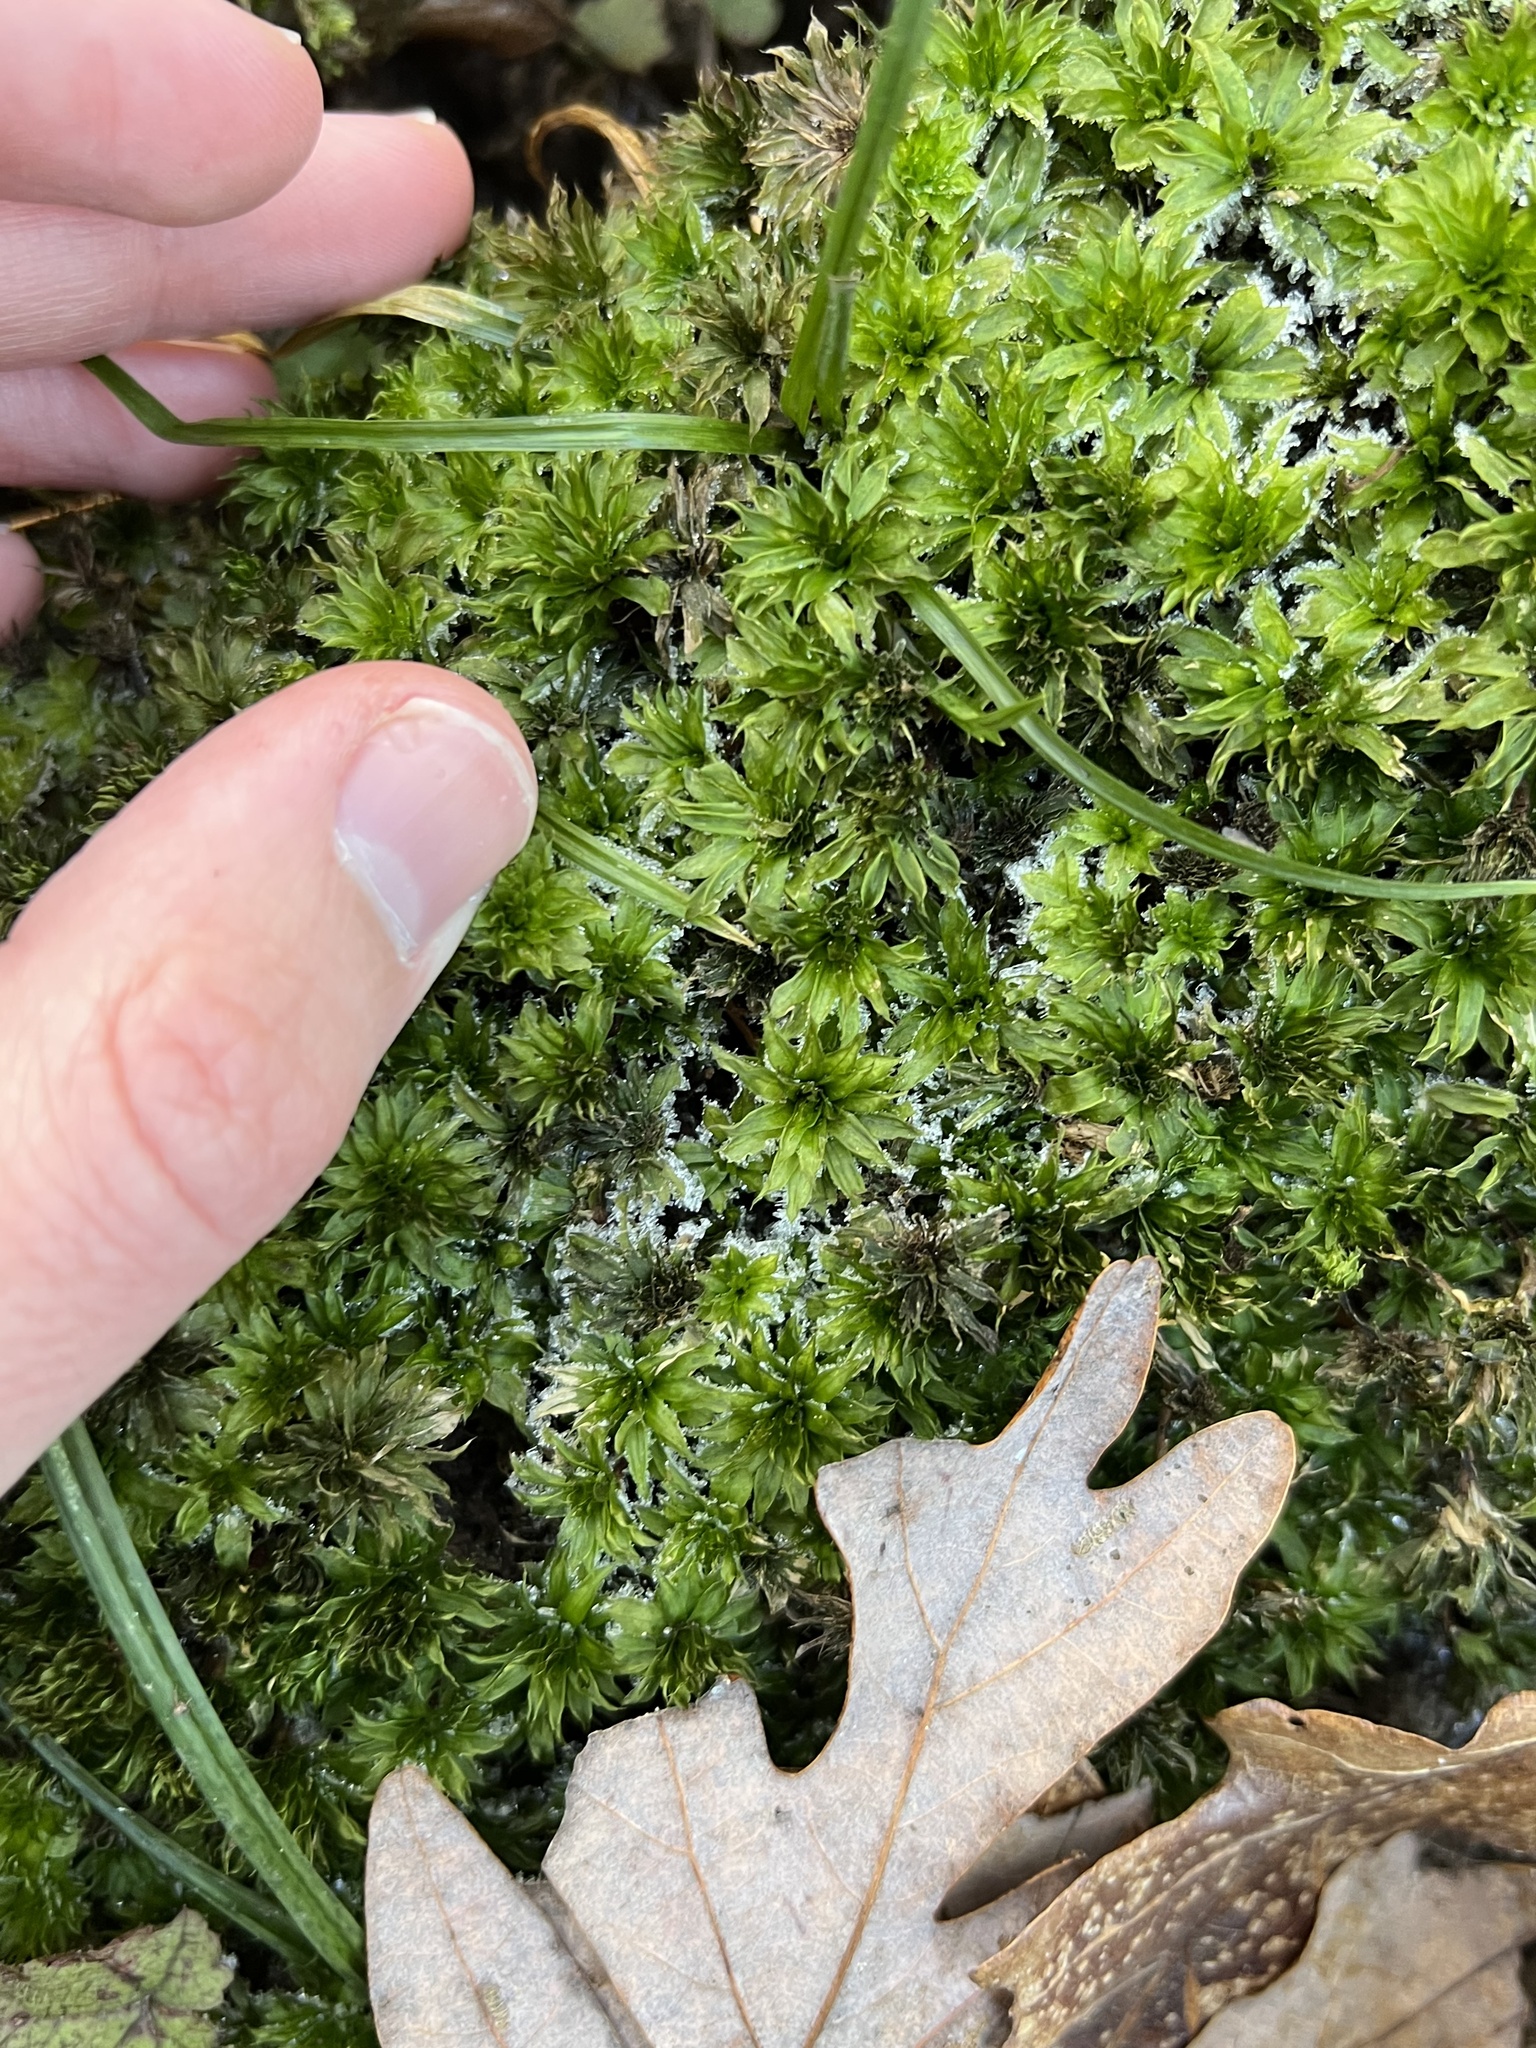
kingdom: Plantae
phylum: Bryophyta
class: Bryopsida
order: Bryales
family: Bryaceae
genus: Rhodobryum
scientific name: Rhodobryum ontariense
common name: Ontario rhodobryum moss
